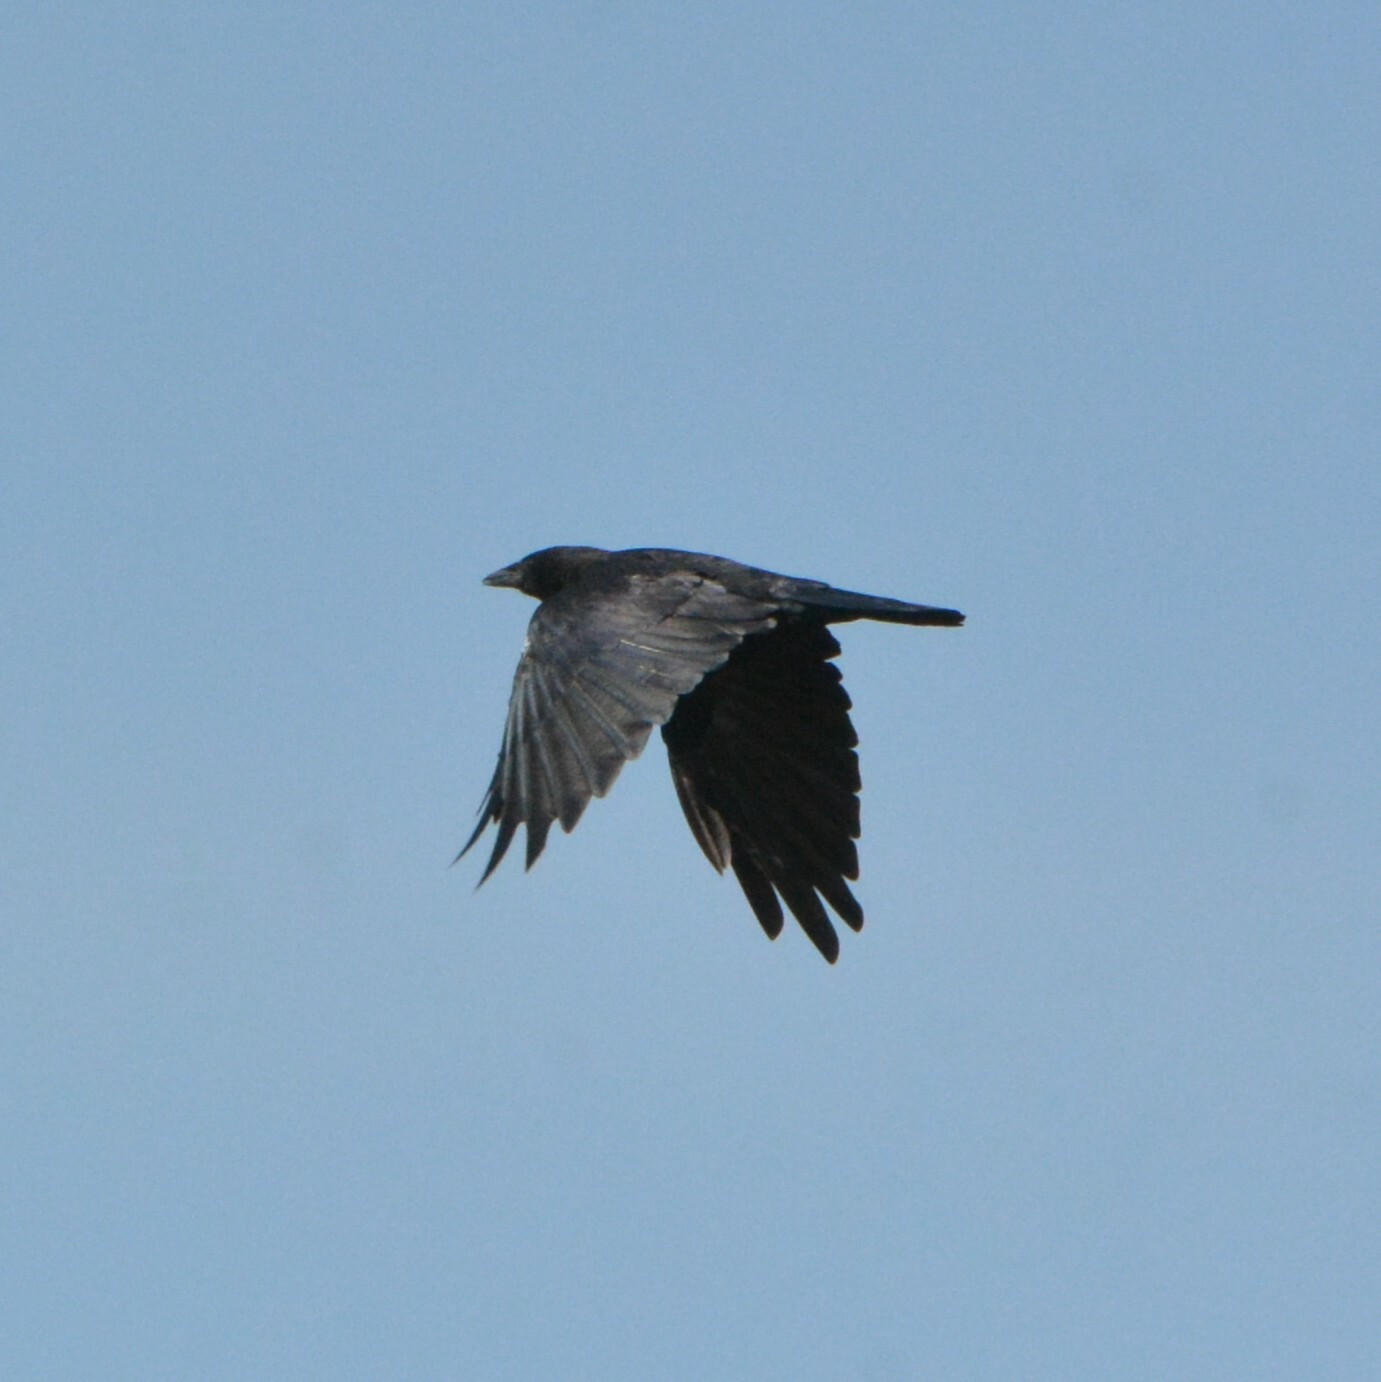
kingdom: Animalia
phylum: Chordata
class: Aves
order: Passeriformes
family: Corvidae
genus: Corvus
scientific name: Corvus brachyrhynchos
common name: American crow
